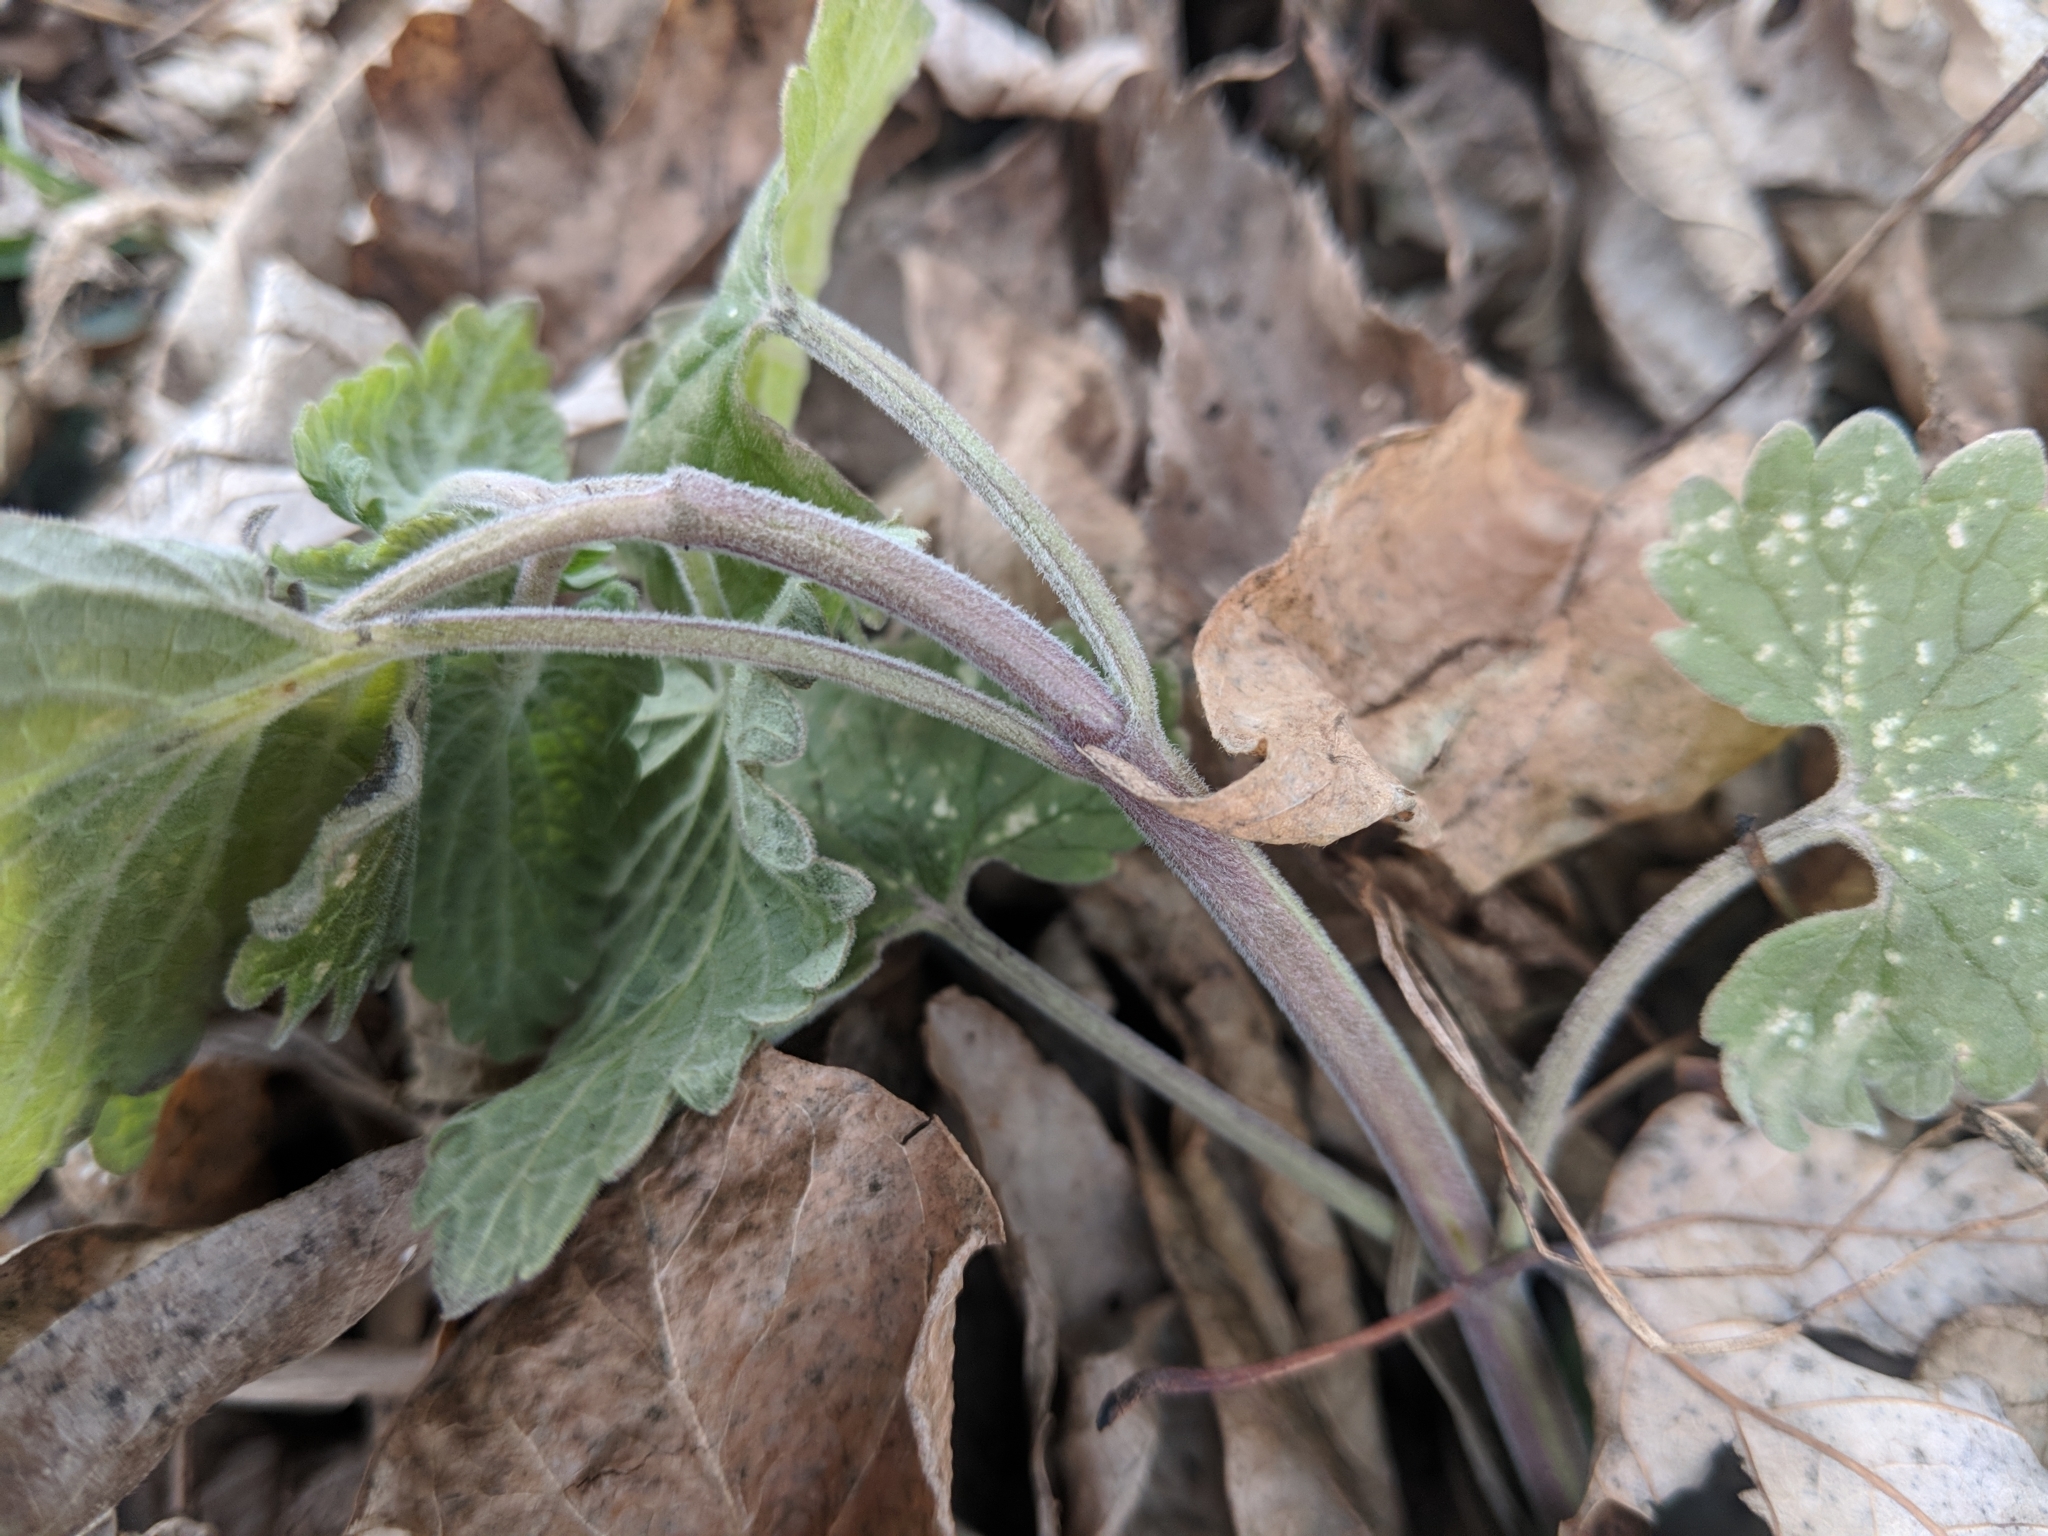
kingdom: Plantae
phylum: Tracheophyta
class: Magnoliopsida
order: Lamiales
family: Lamiaceae
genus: Nepeta
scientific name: Nepeta cataria
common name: Catnip
